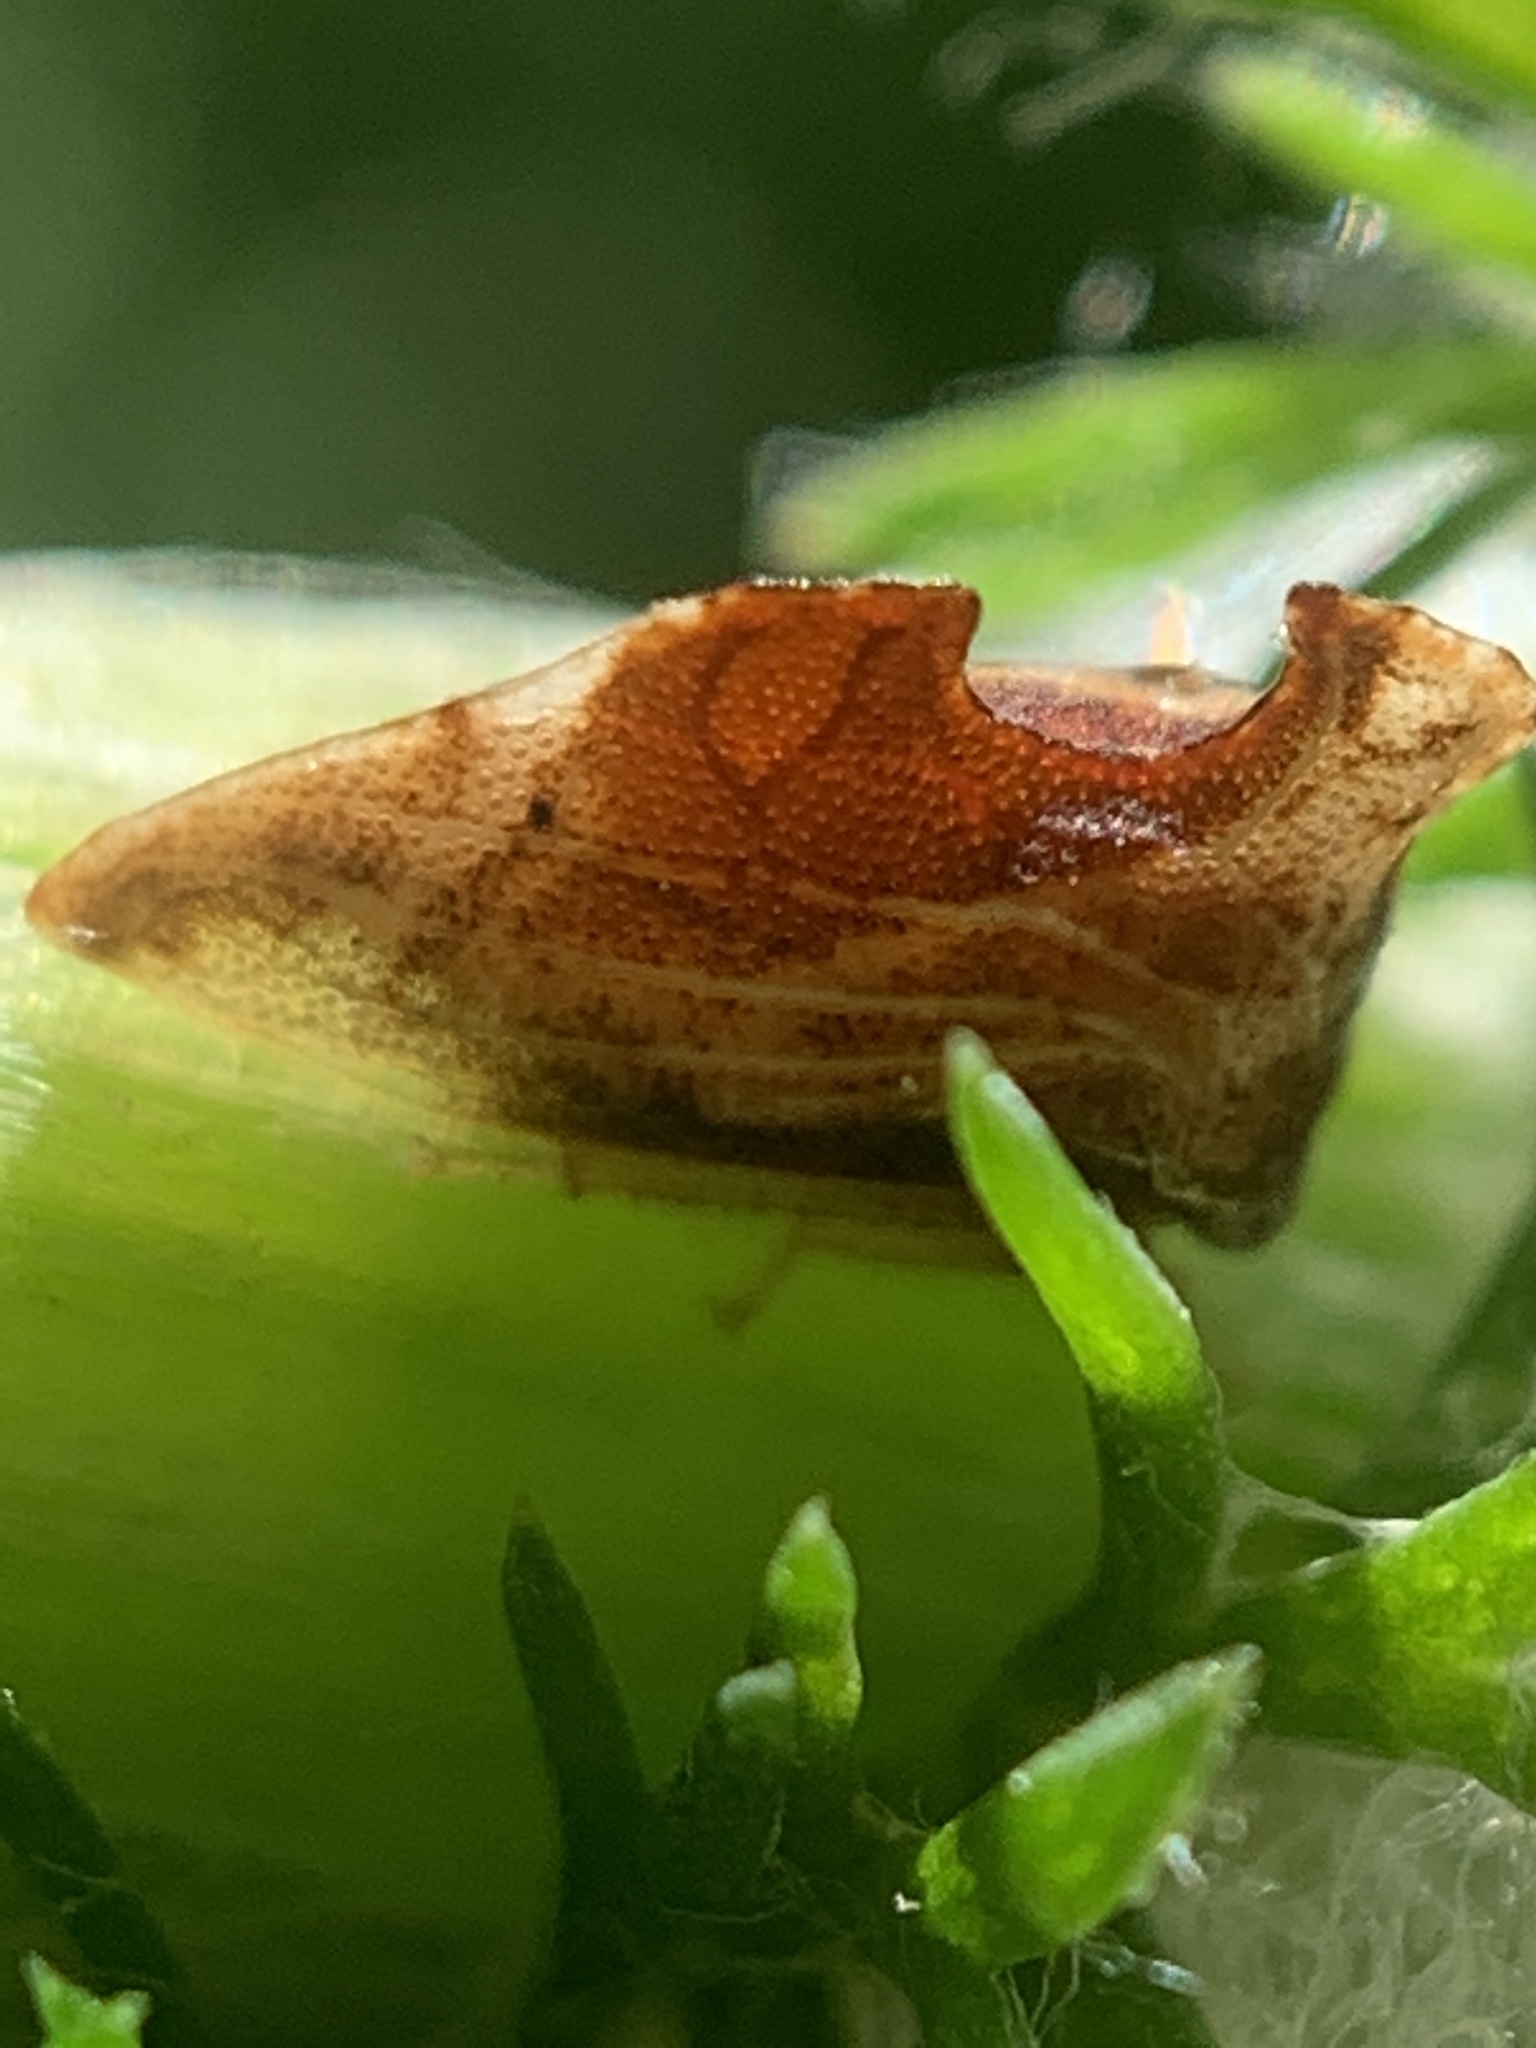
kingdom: Animalia
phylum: Arthropoda
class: Insecta
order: Hemiptera
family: Membracidae
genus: Entylia
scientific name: Entylia carinata
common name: Keeled treehopper
